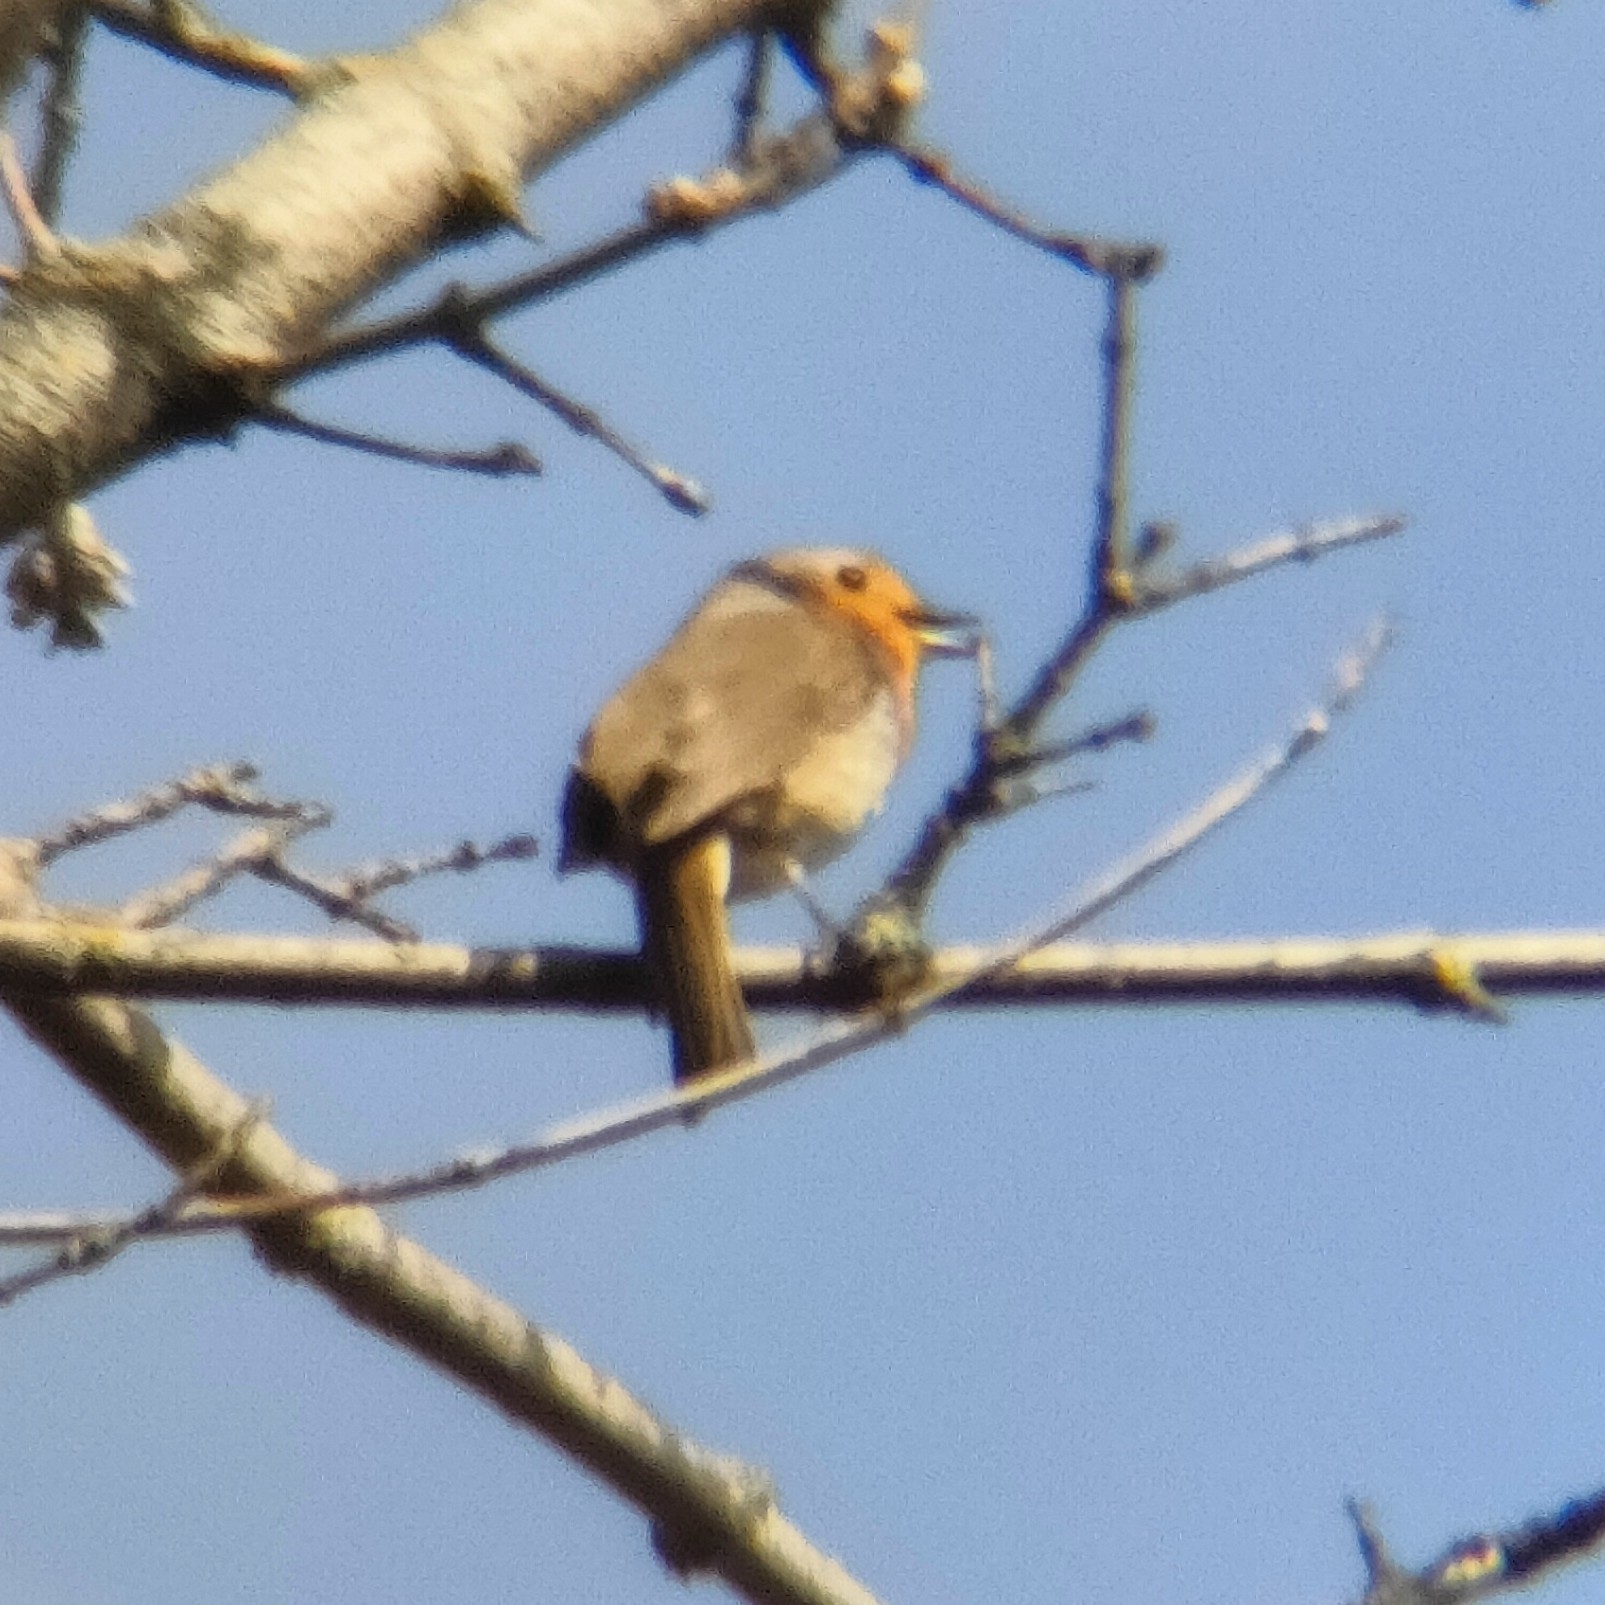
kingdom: Animalia
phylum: Chordata
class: Aves
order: Passeriformes
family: Muscicapidae
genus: Erithacus
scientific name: Erithacus rubecula
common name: European robin
